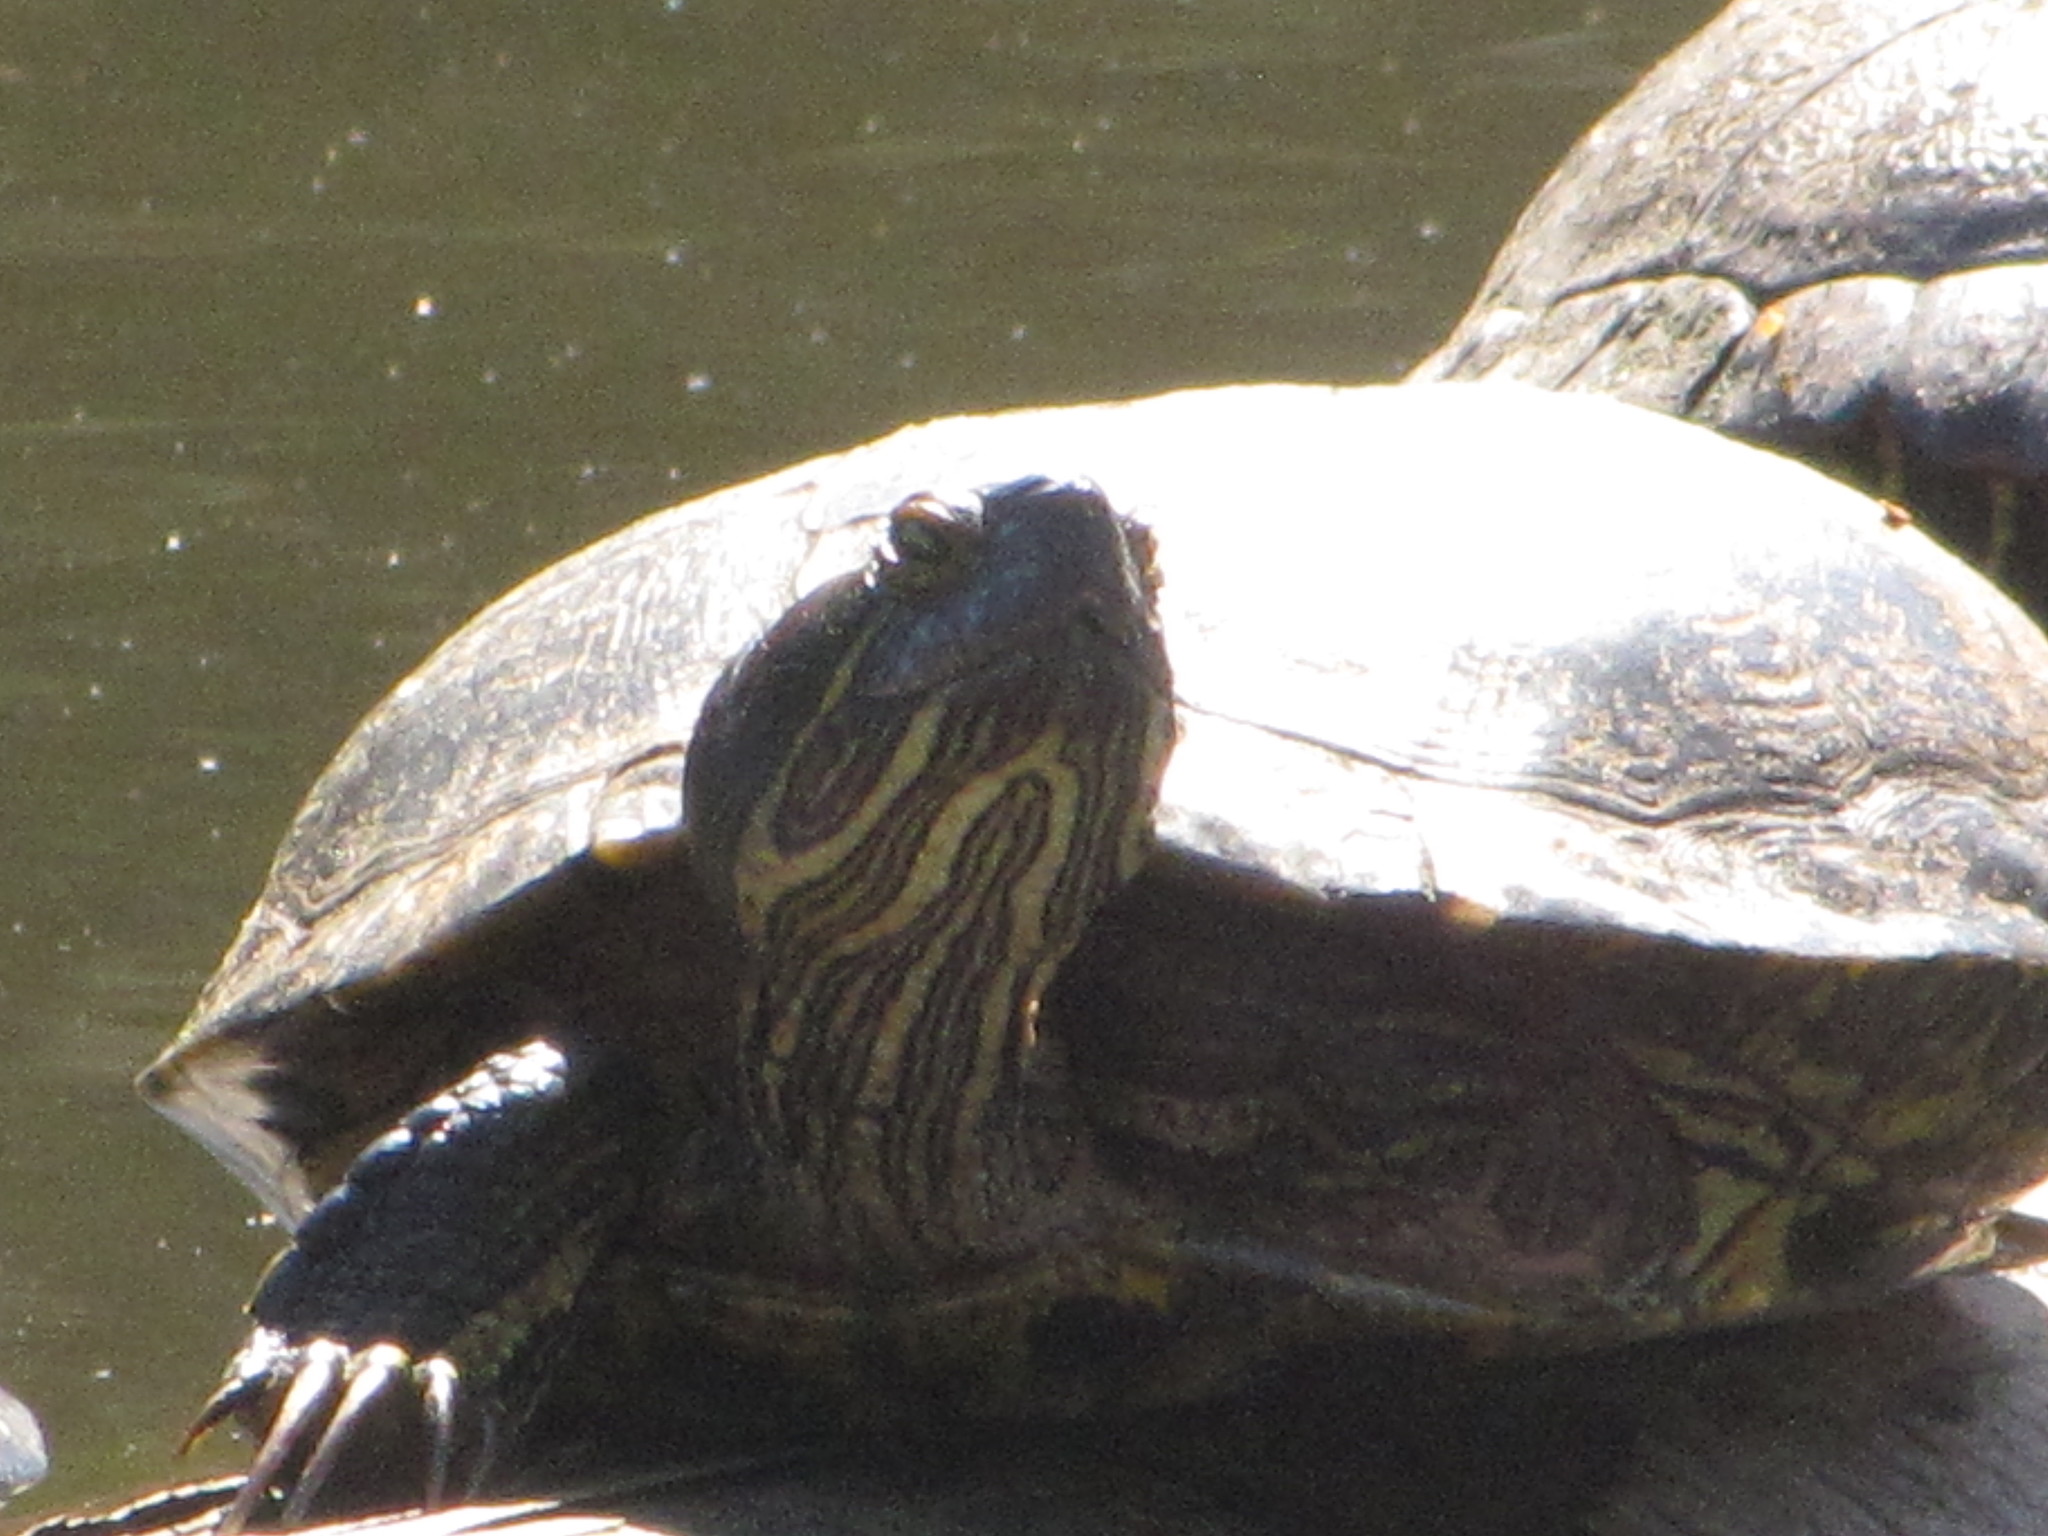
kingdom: Animalia
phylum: Chordata
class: Testudines
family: Emydidae
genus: Trachemys
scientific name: Trachemys scripta
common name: Slider
